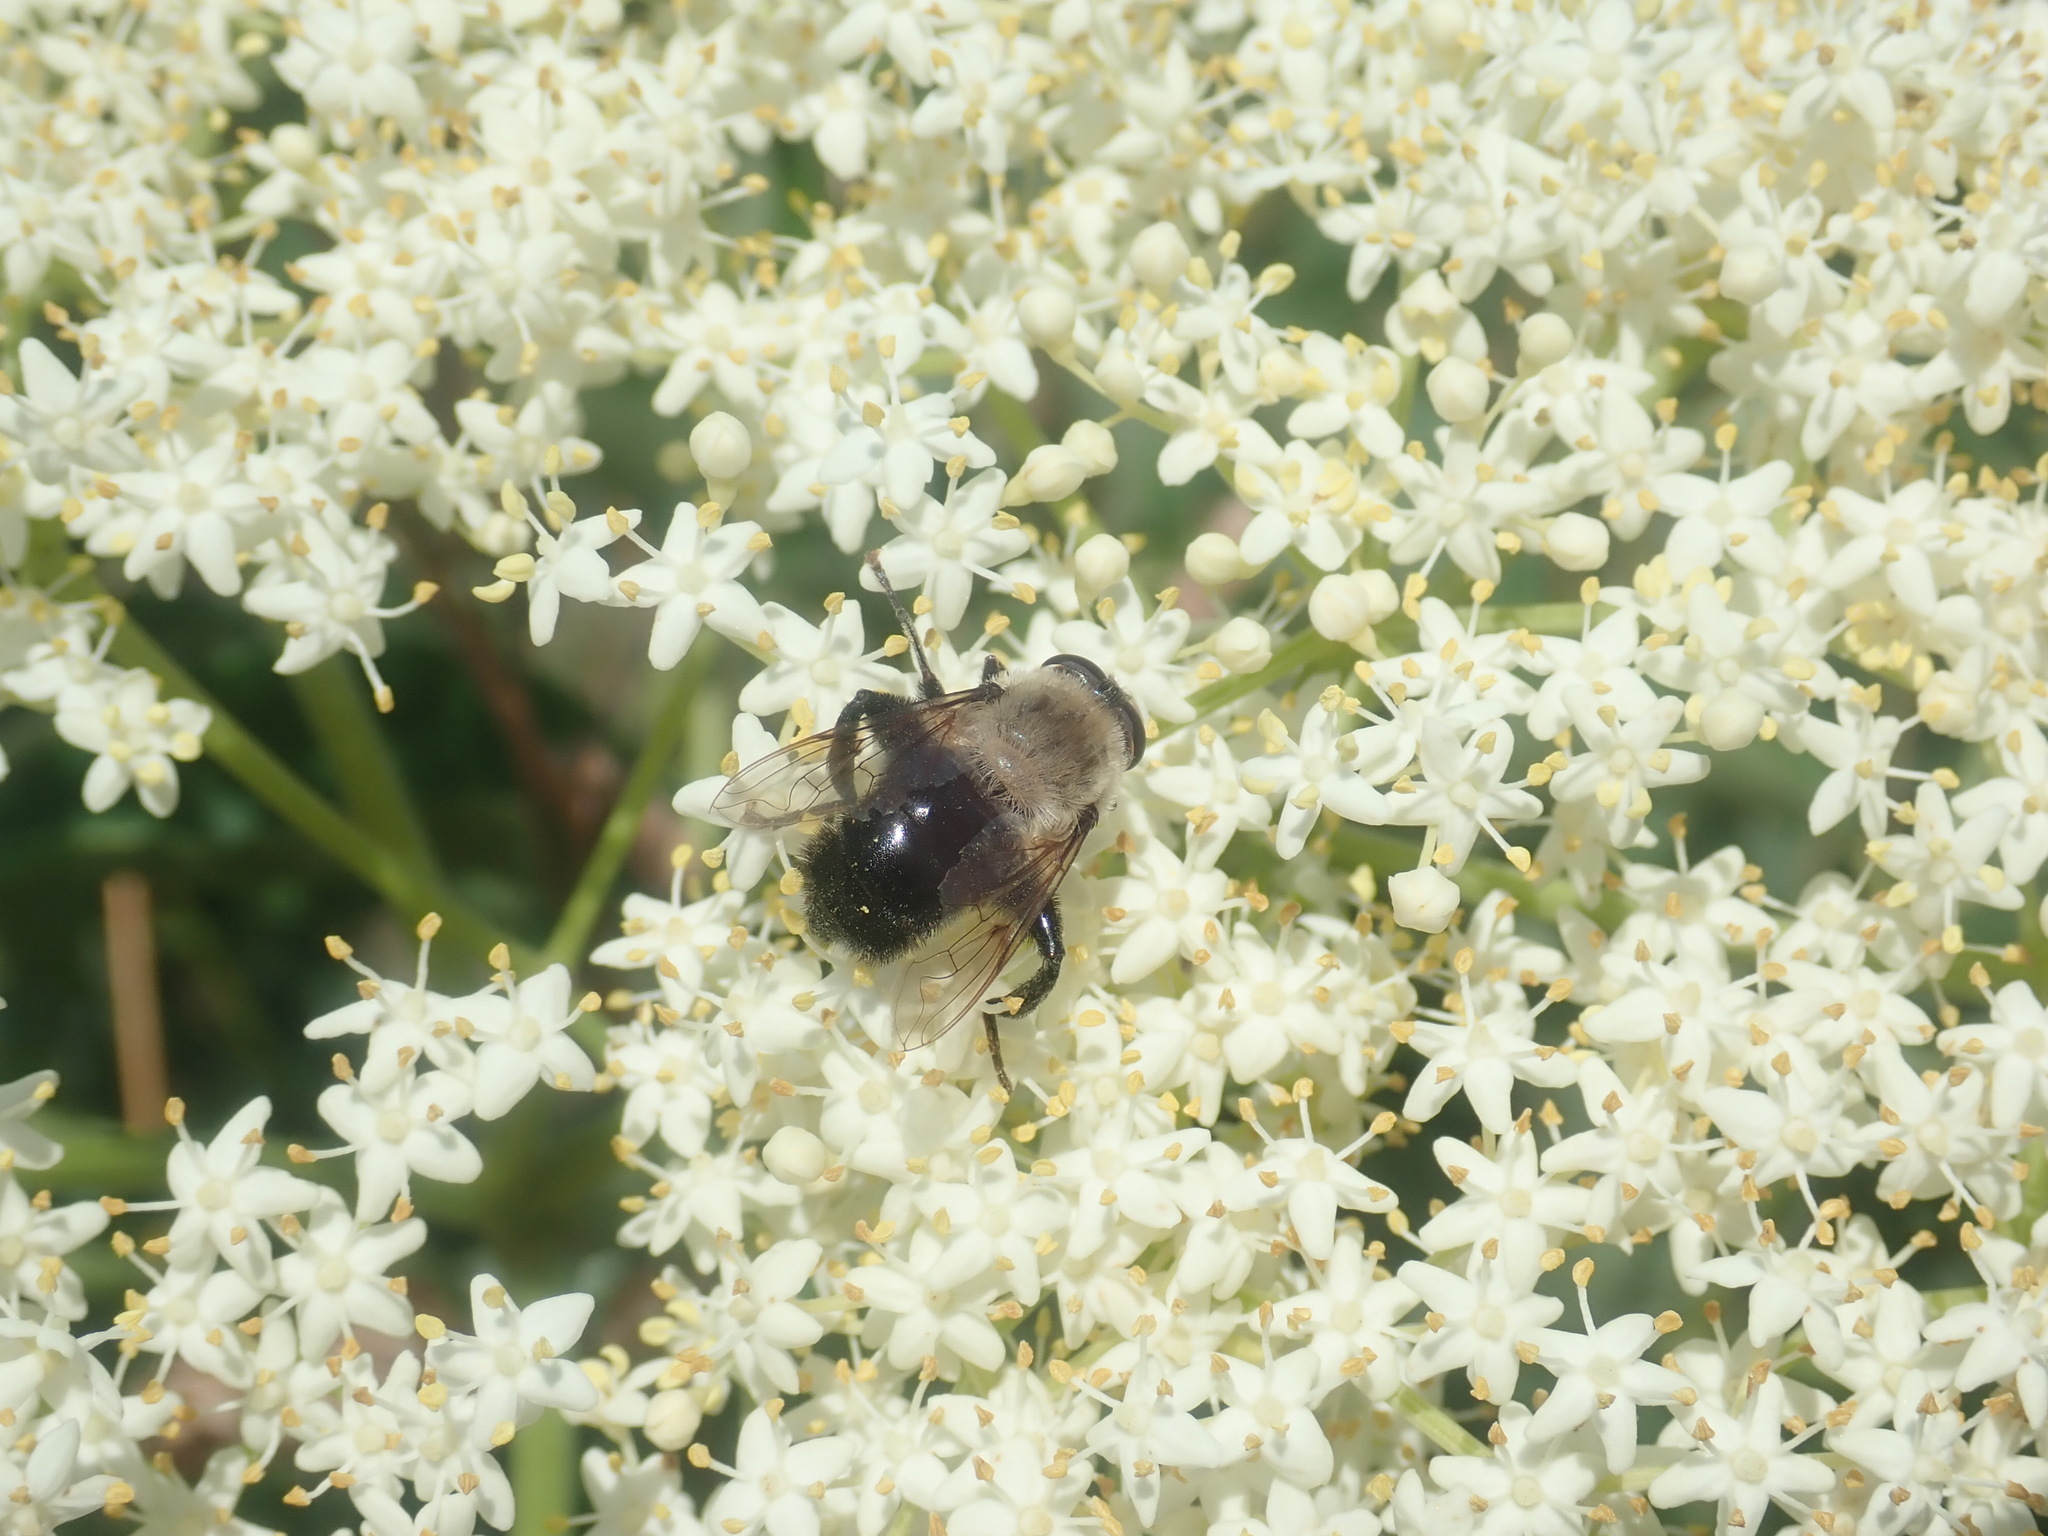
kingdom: Animalia
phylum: Arthropoda
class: Insecta
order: Diptera
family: Syrphidae
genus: Imatisma
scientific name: Imatisma bautias
